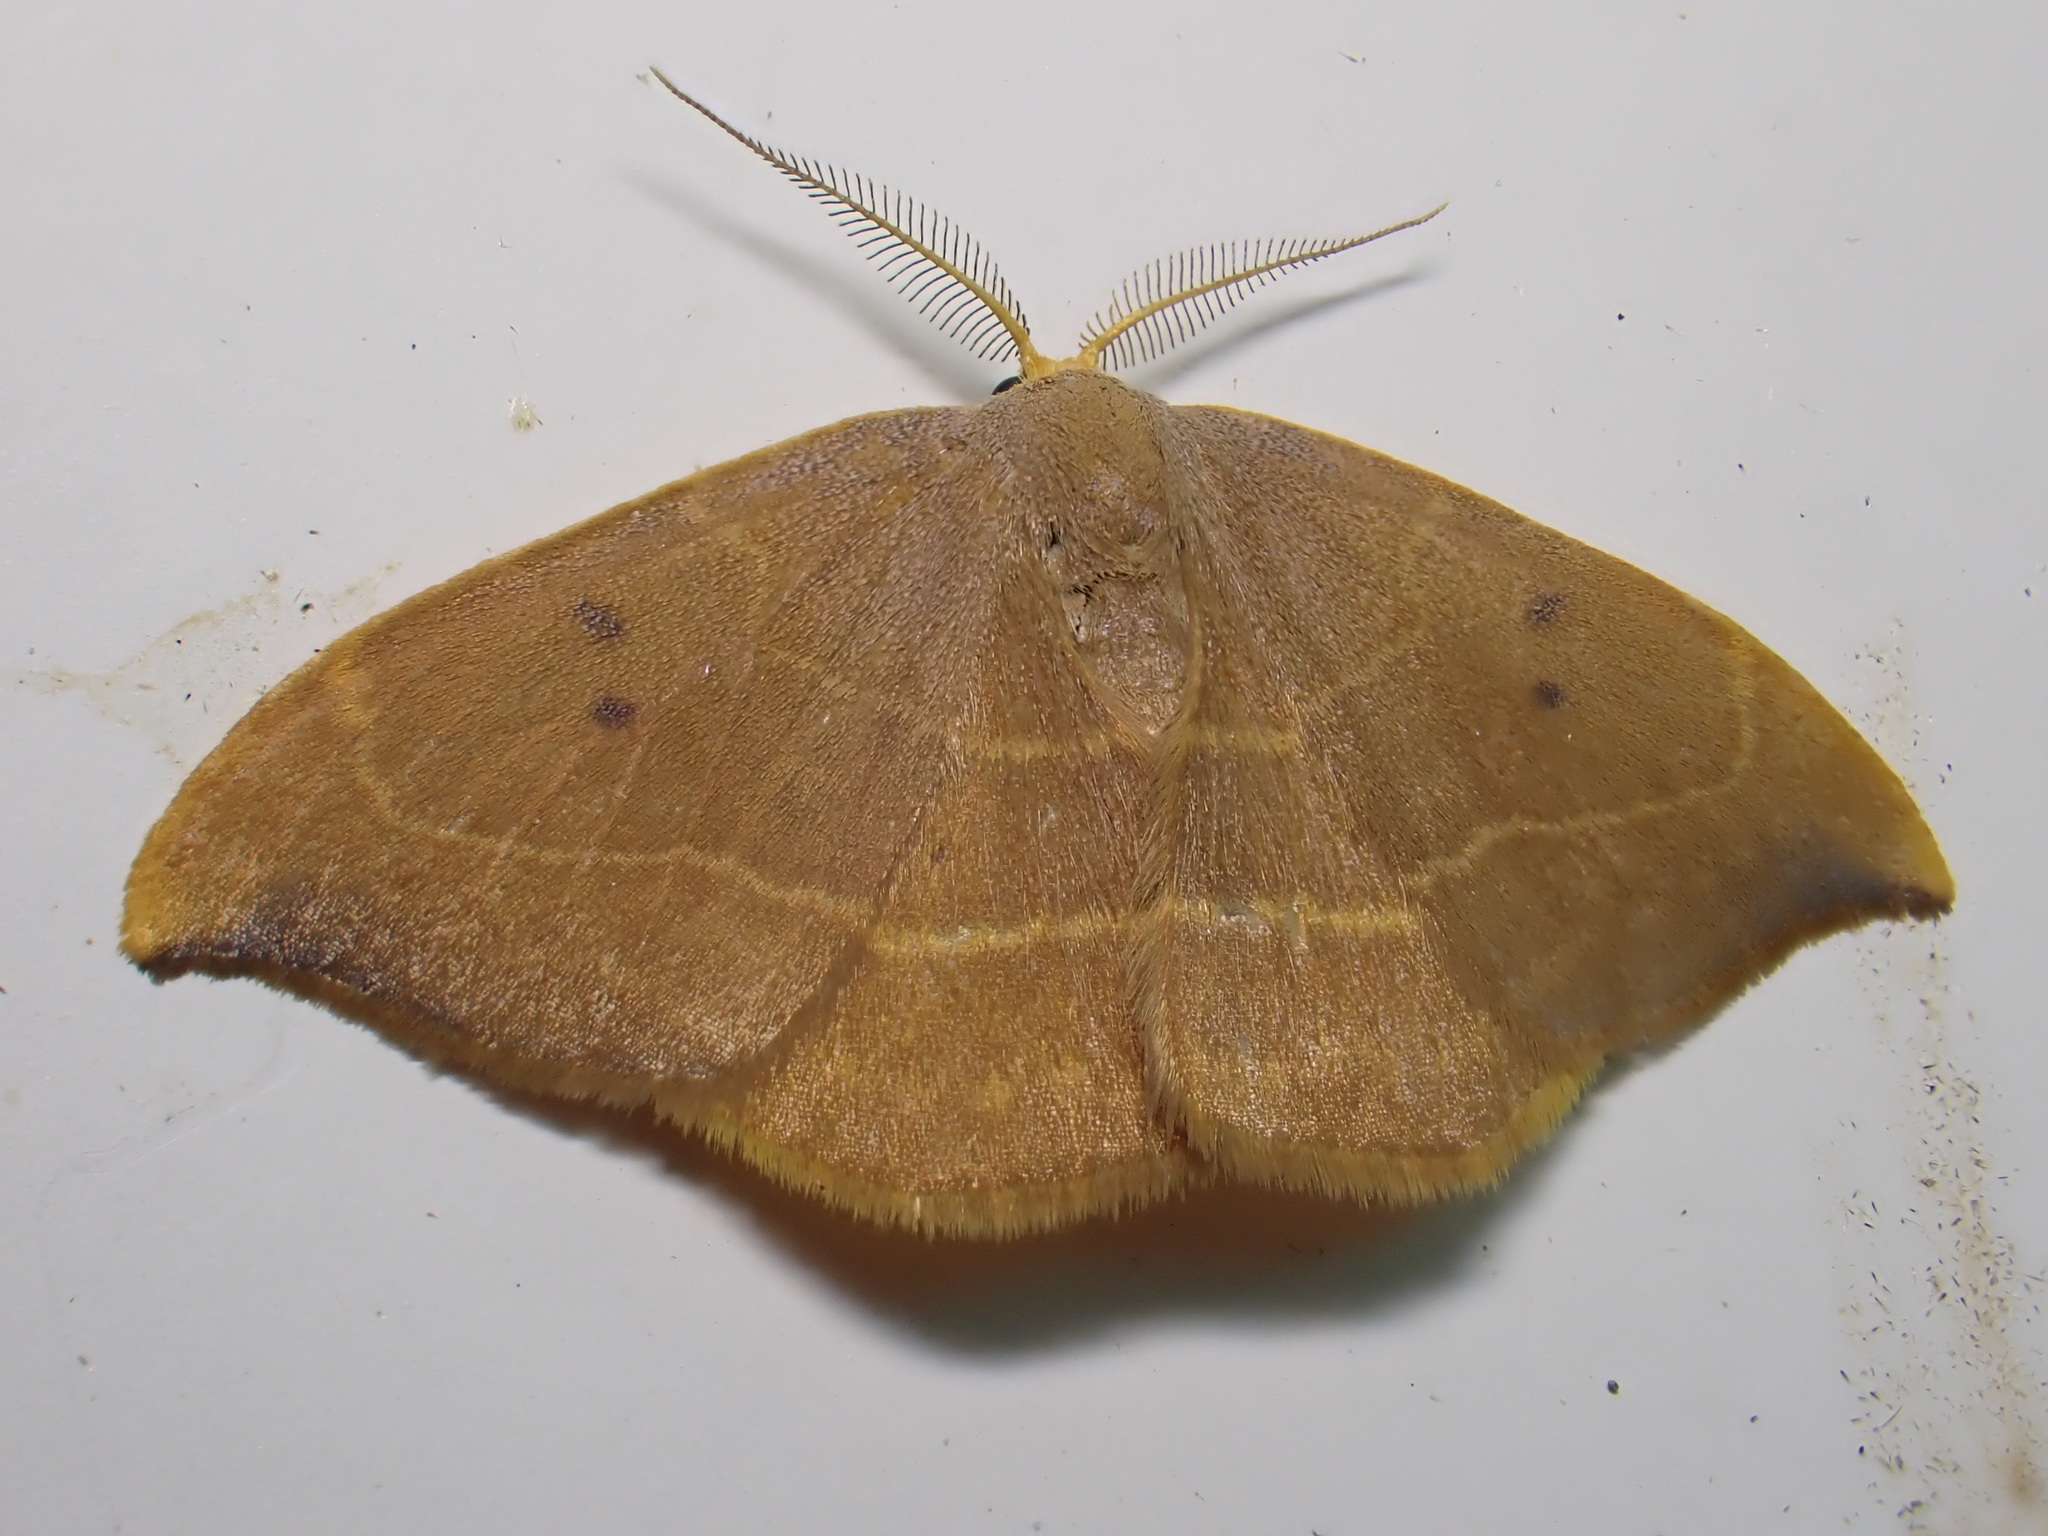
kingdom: Animalia
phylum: Arthropoda
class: Insecta
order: Lepidoptera
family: Drepanidae
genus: Watsonalla
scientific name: Watsonalla binaria
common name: Oak hook-tip
